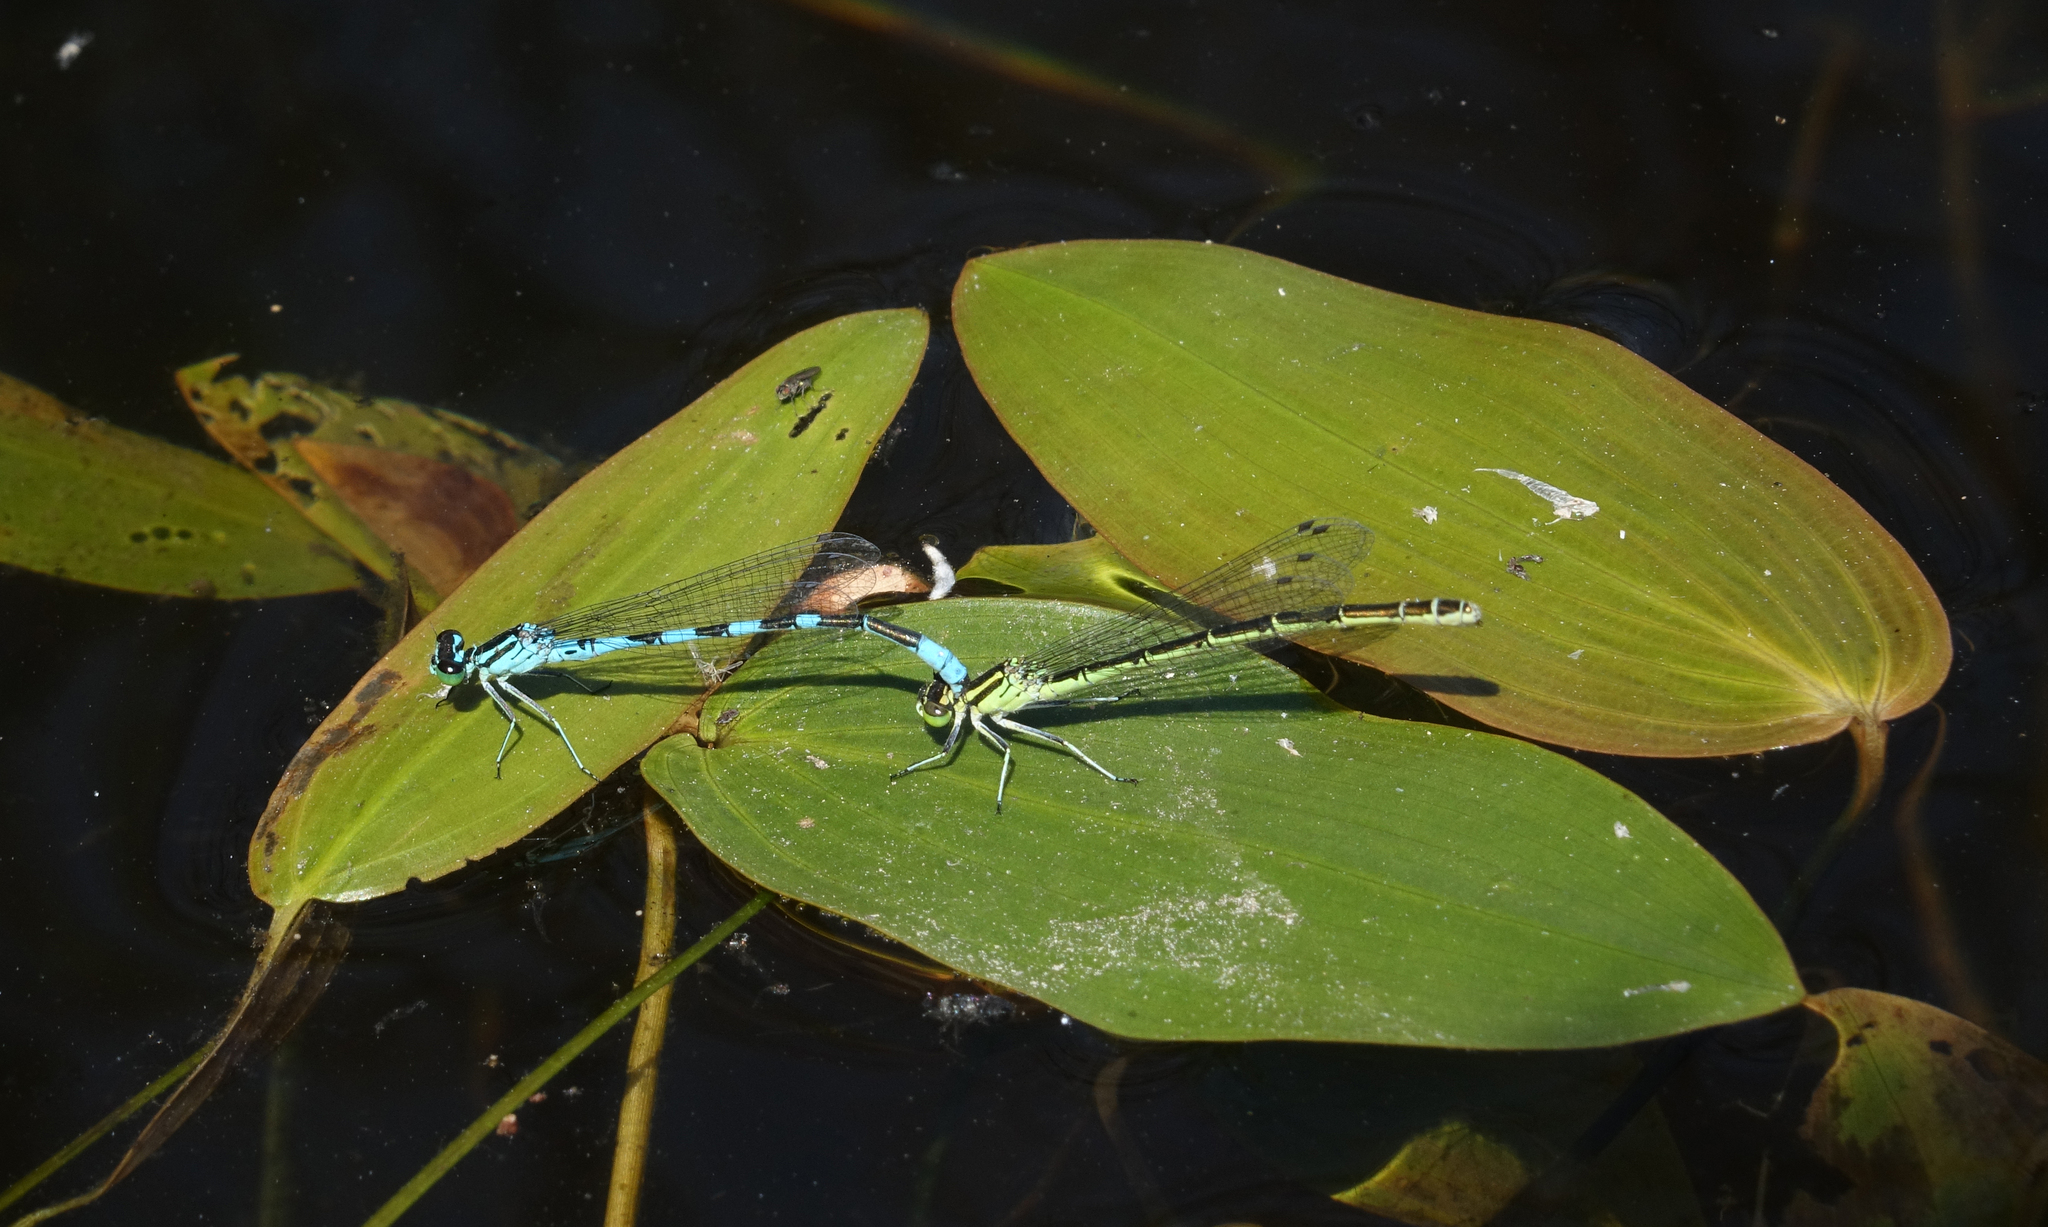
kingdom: Animalia
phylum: Arthropoda
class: Insecta
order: Odonata
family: Coenagrionidae
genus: Coenagrion
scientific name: Coenagrion hastulatum
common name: Spearhead bluet
